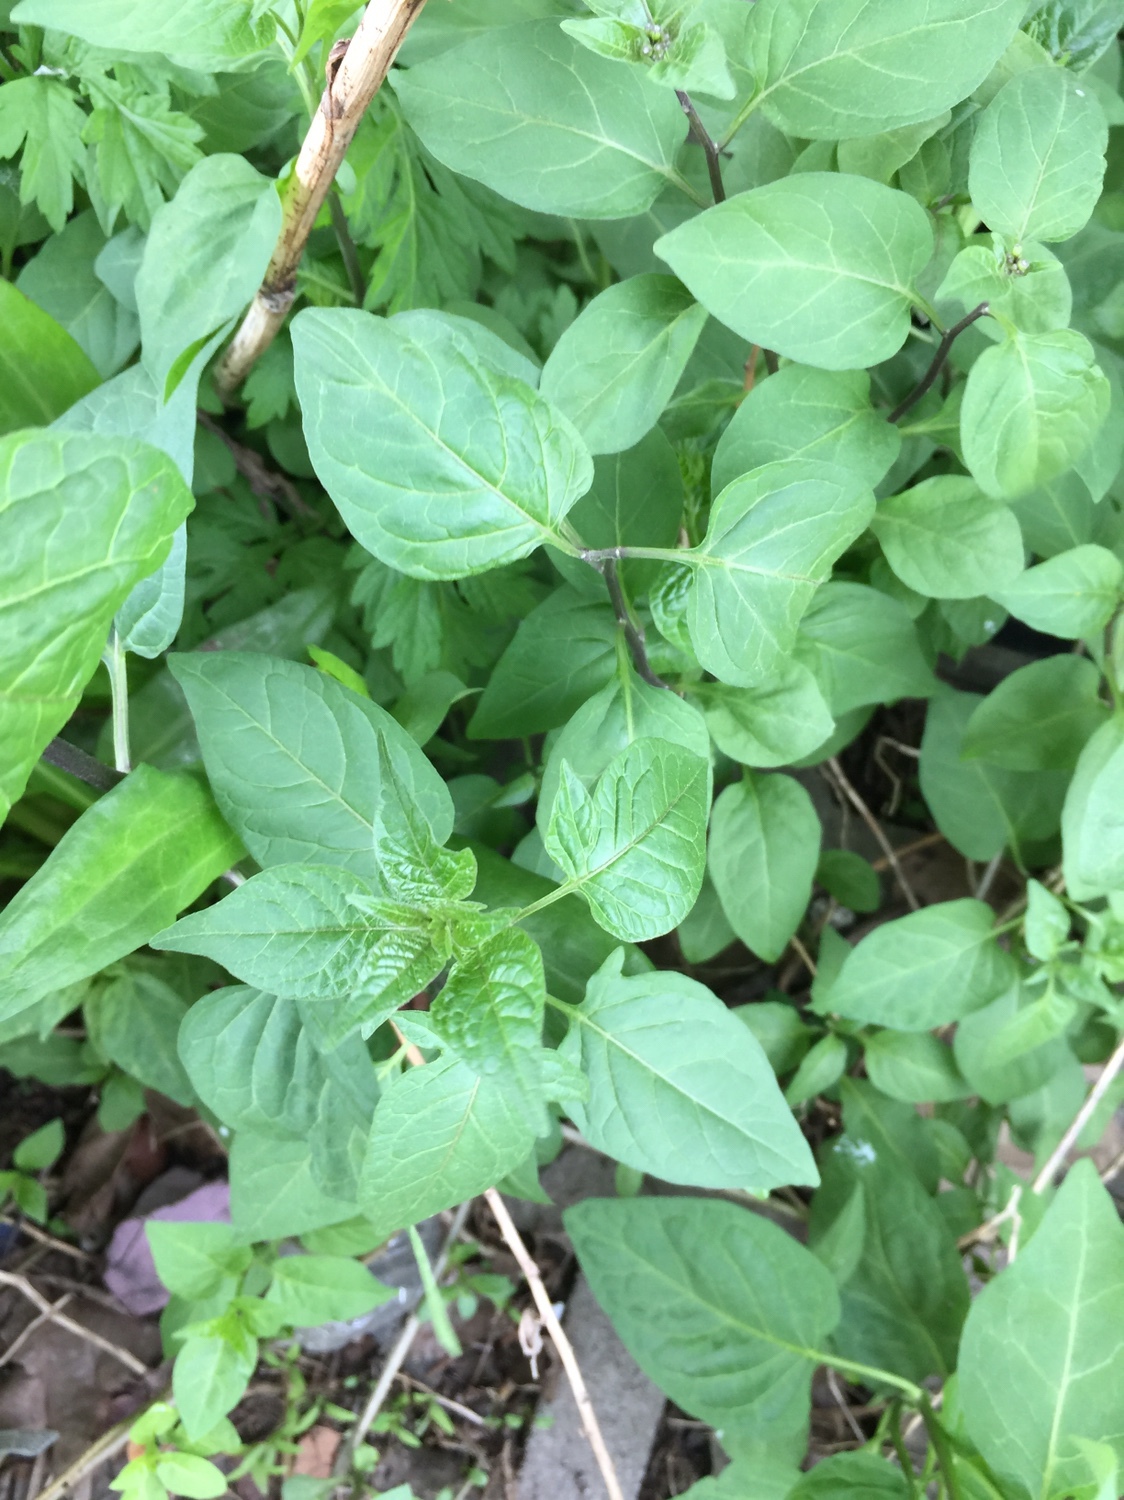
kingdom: Plantae
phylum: Tracheophyta
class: Magnoliopsida
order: Solanales
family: Solanaceae
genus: Solanum
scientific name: Solanum dulcamara
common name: Climbing nightshade
